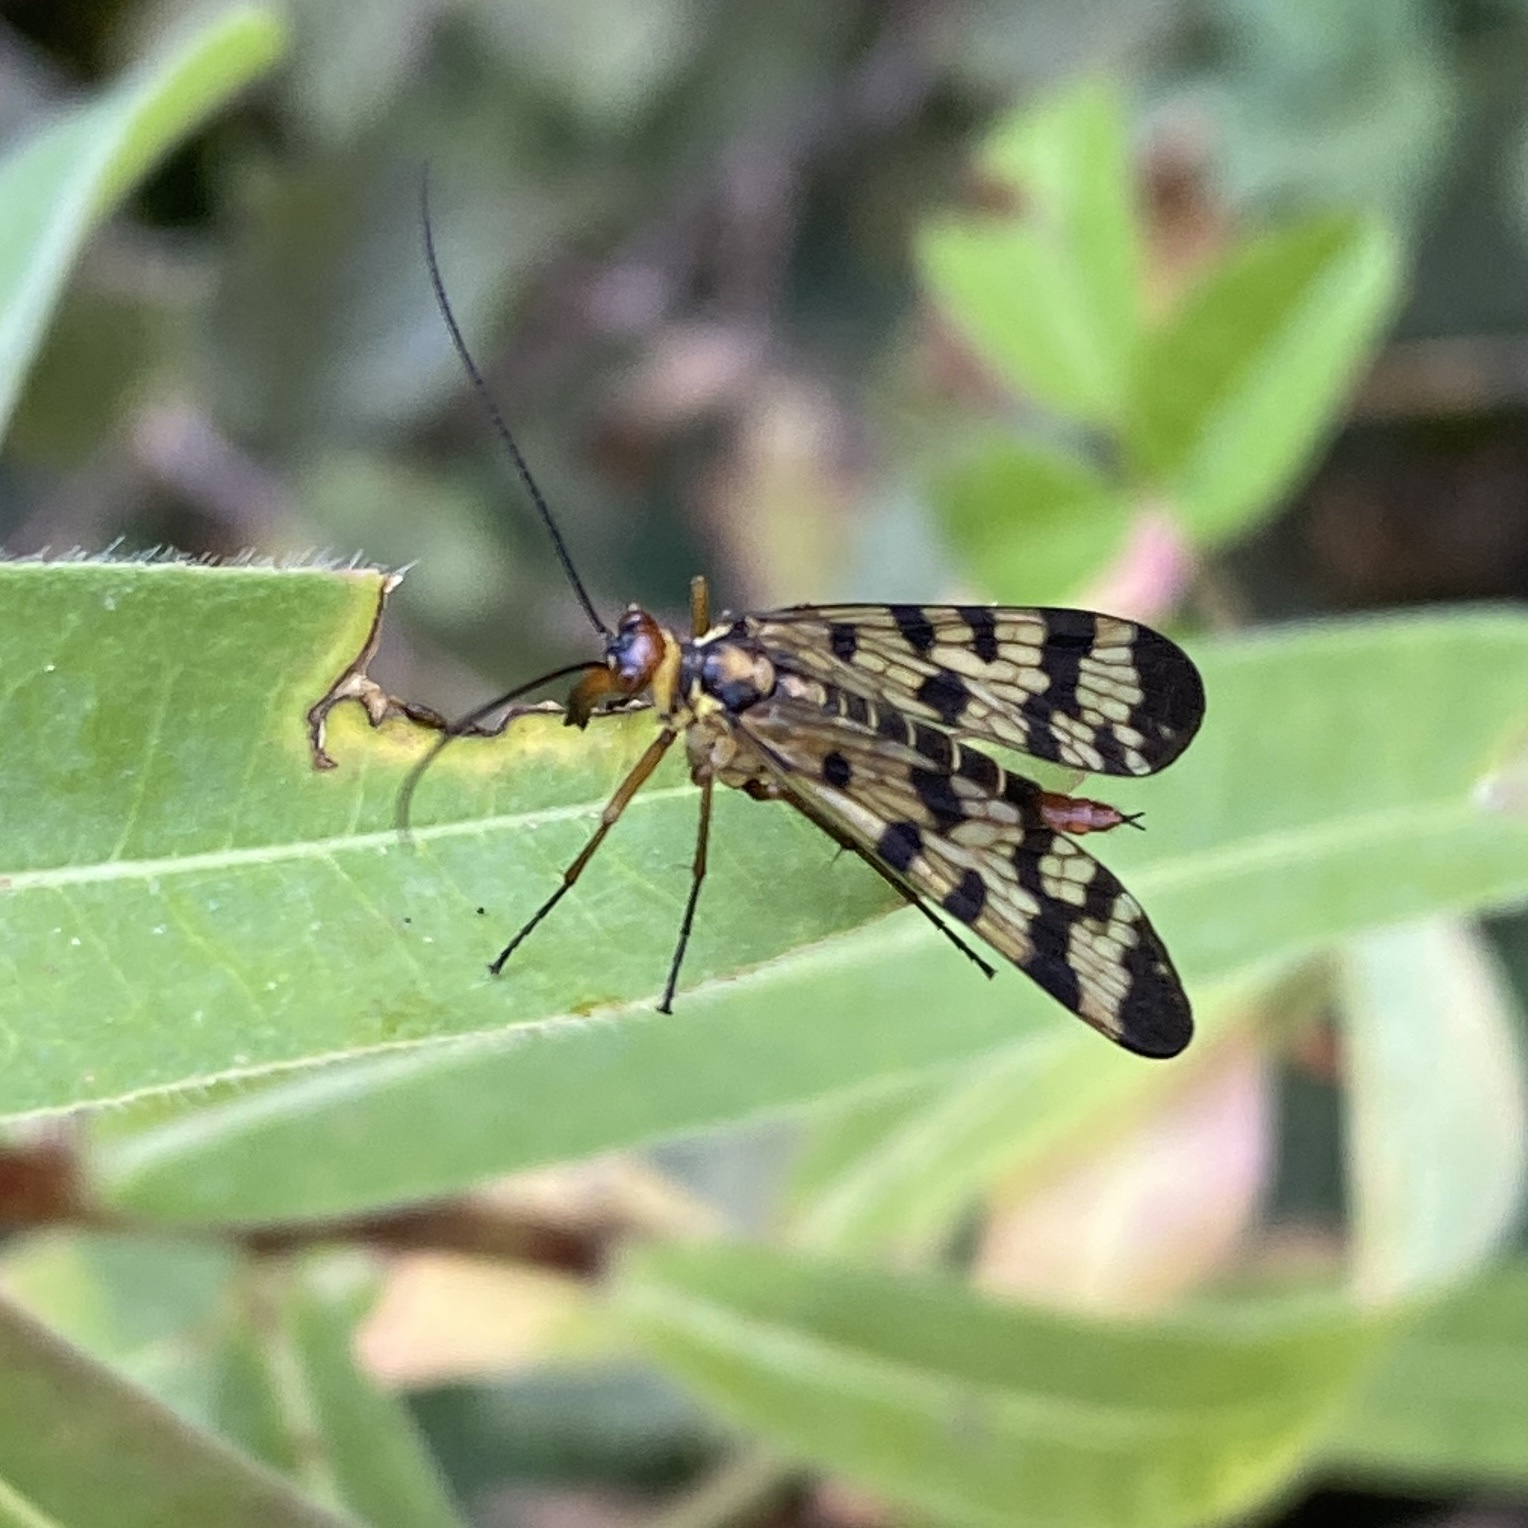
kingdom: Animalia
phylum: Arthropoda
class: Insecta
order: Mecoptera
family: Panorpidae
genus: Panorpa
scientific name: Panorpa meridionalis
